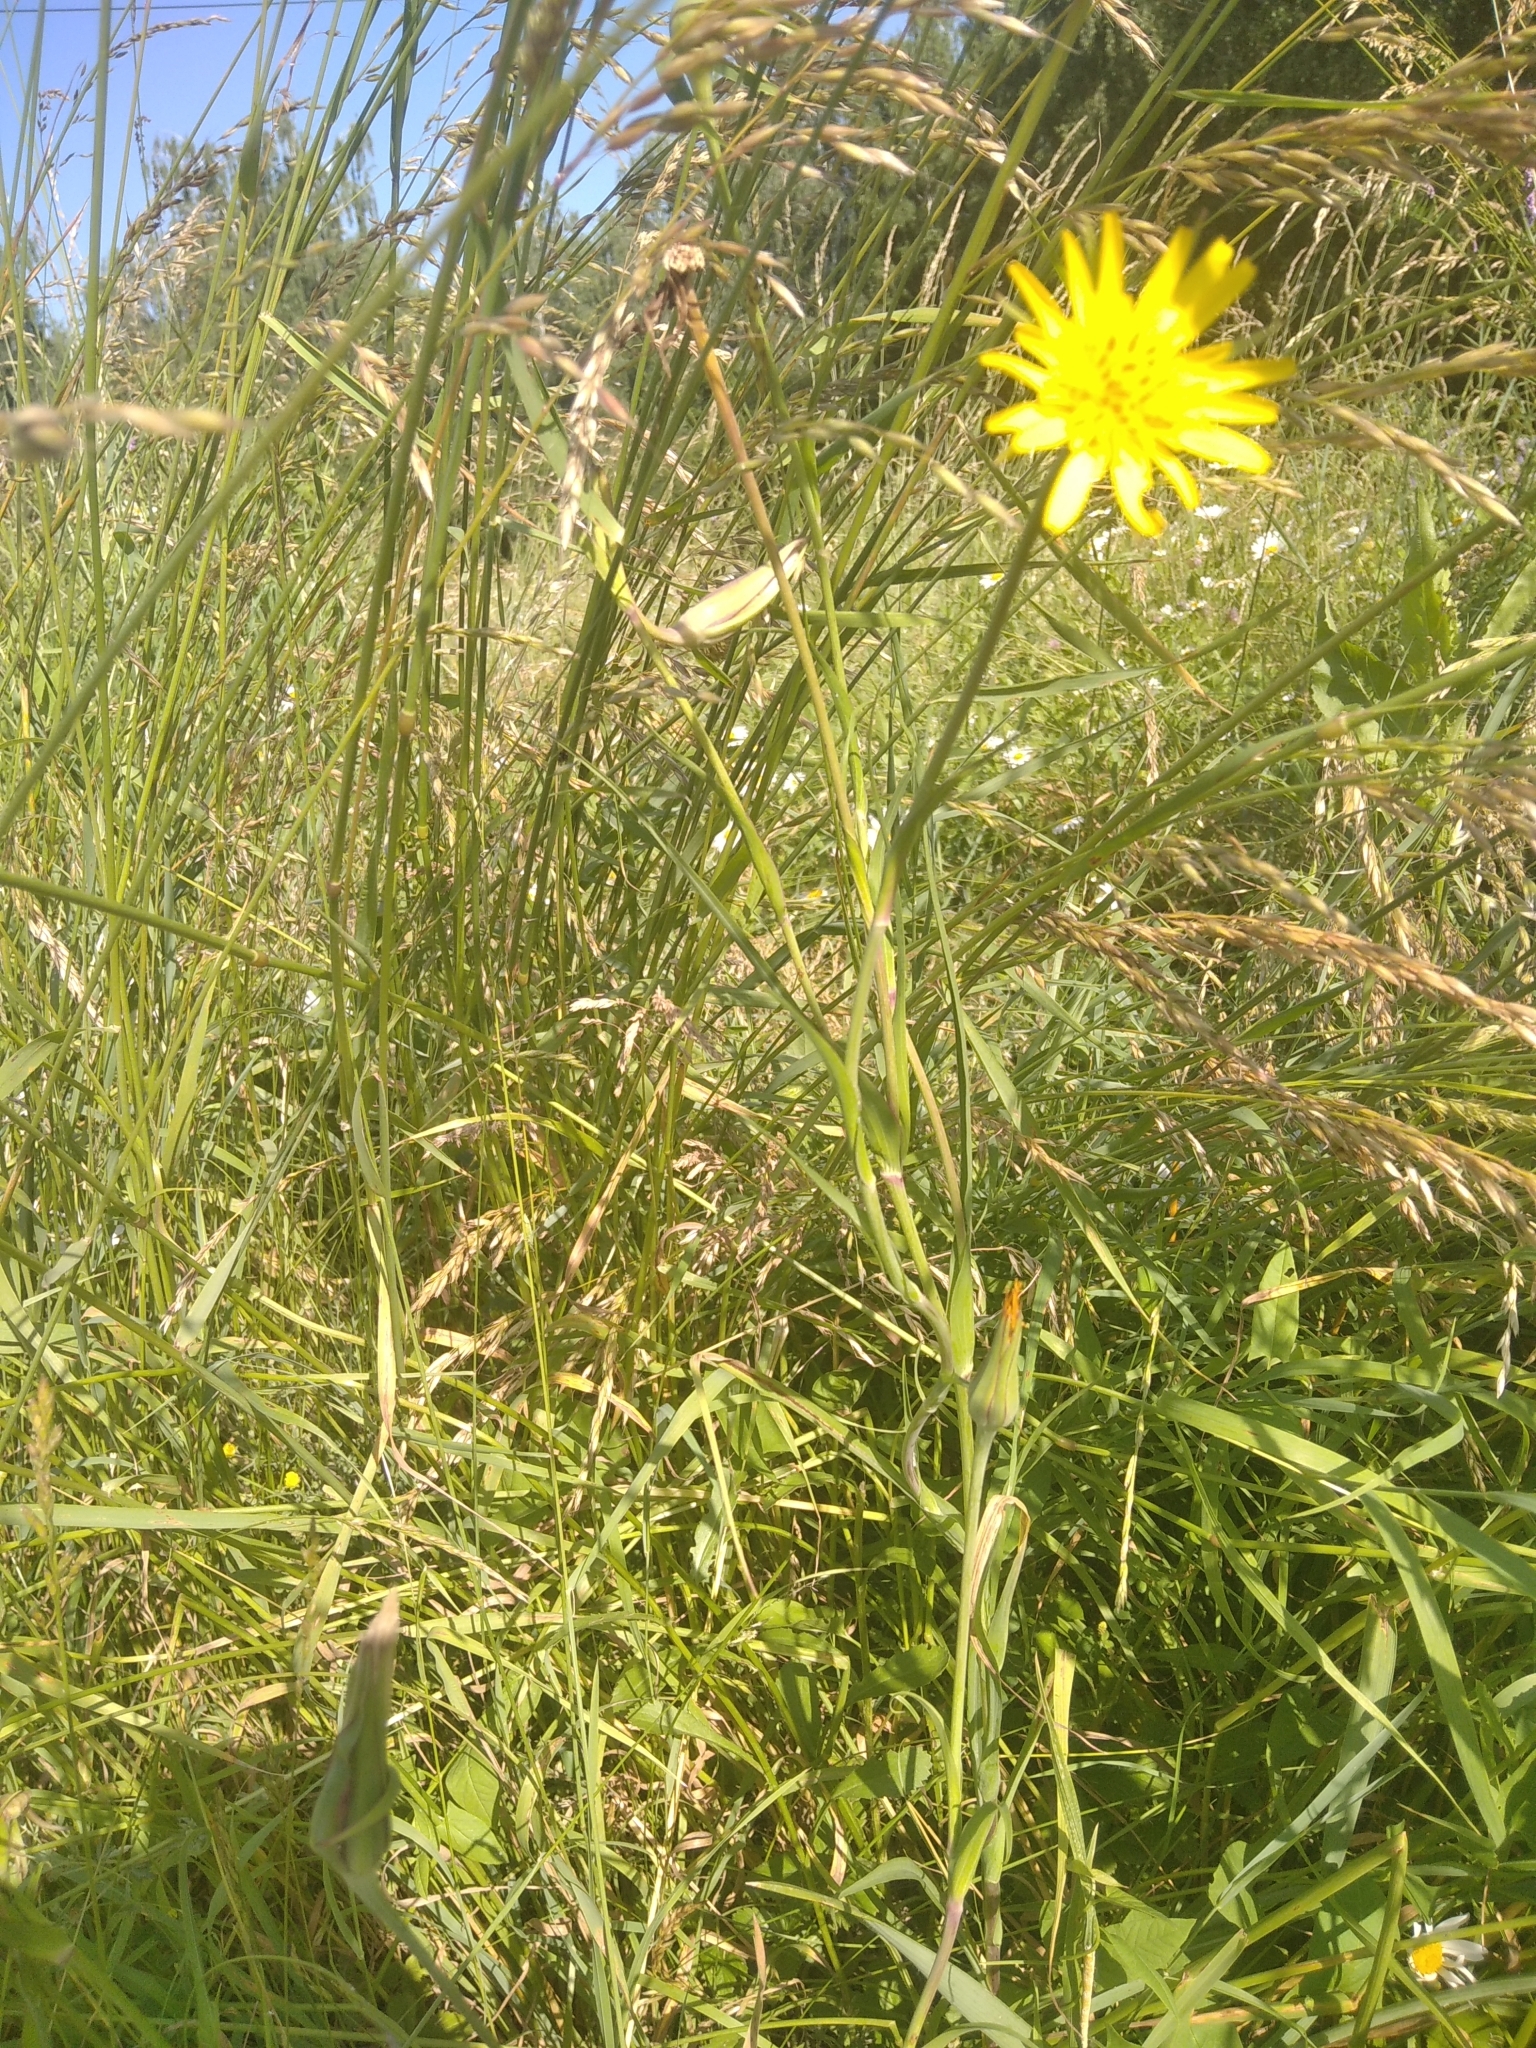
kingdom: Plantae
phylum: Tracheophyta
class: Magnoliopsida
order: Asterales
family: Asteraceae
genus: Tragopogon
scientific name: Tragopogon orientalis
